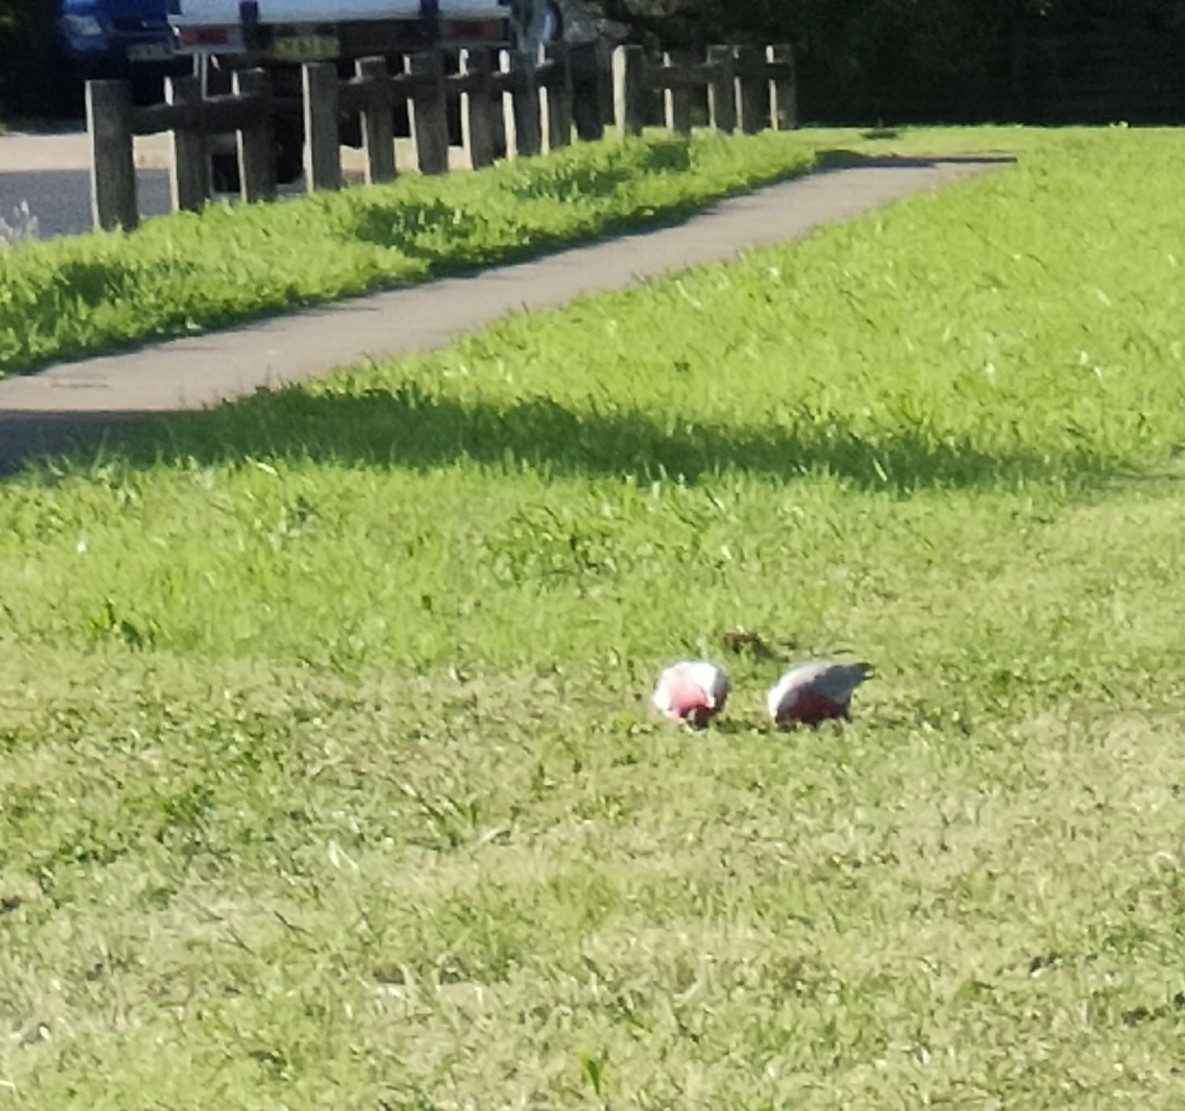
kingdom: Animalia
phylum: Chordata
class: Aves
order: Psittaciformes
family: Psittacidae
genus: Eolophus
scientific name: Eolophus roseicapilla
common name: Galah
